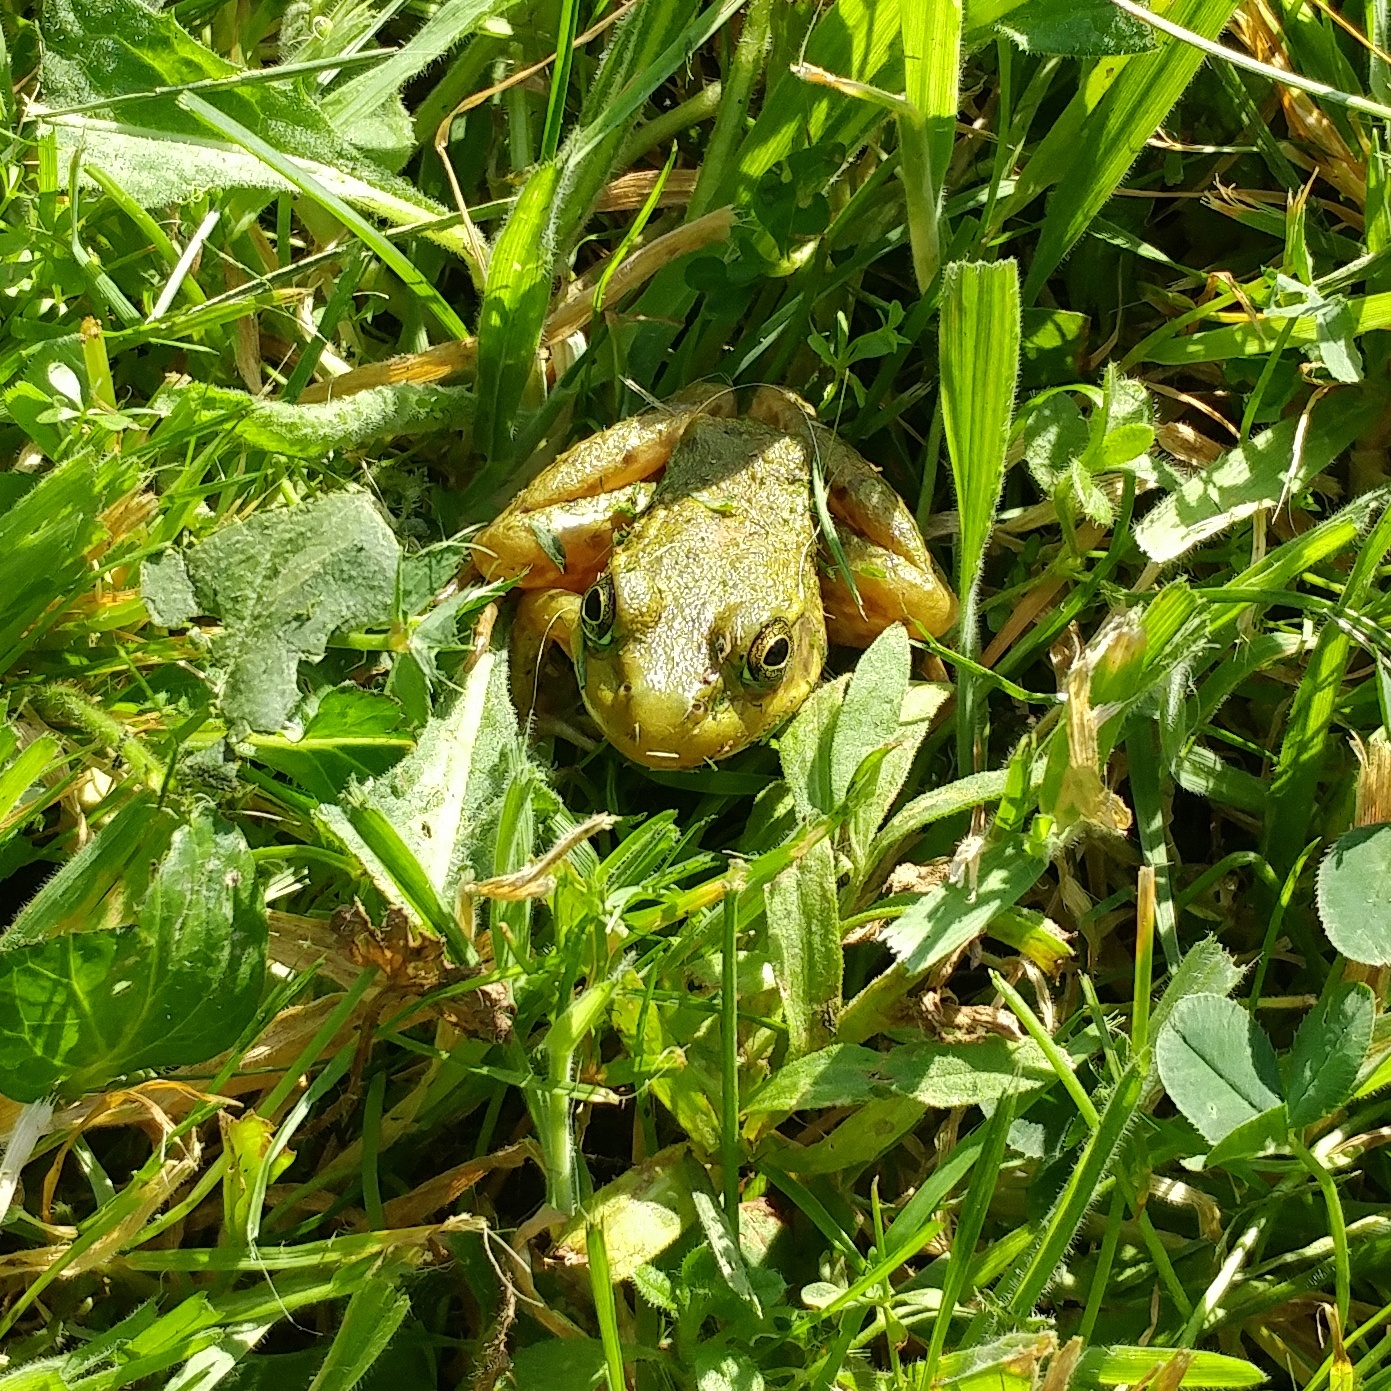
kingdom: Animalia
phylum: Chordata
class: Amphibia
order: Anura
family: Ranidae
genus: Lithobates
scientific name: Lithobates clamitans
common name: Green frog
